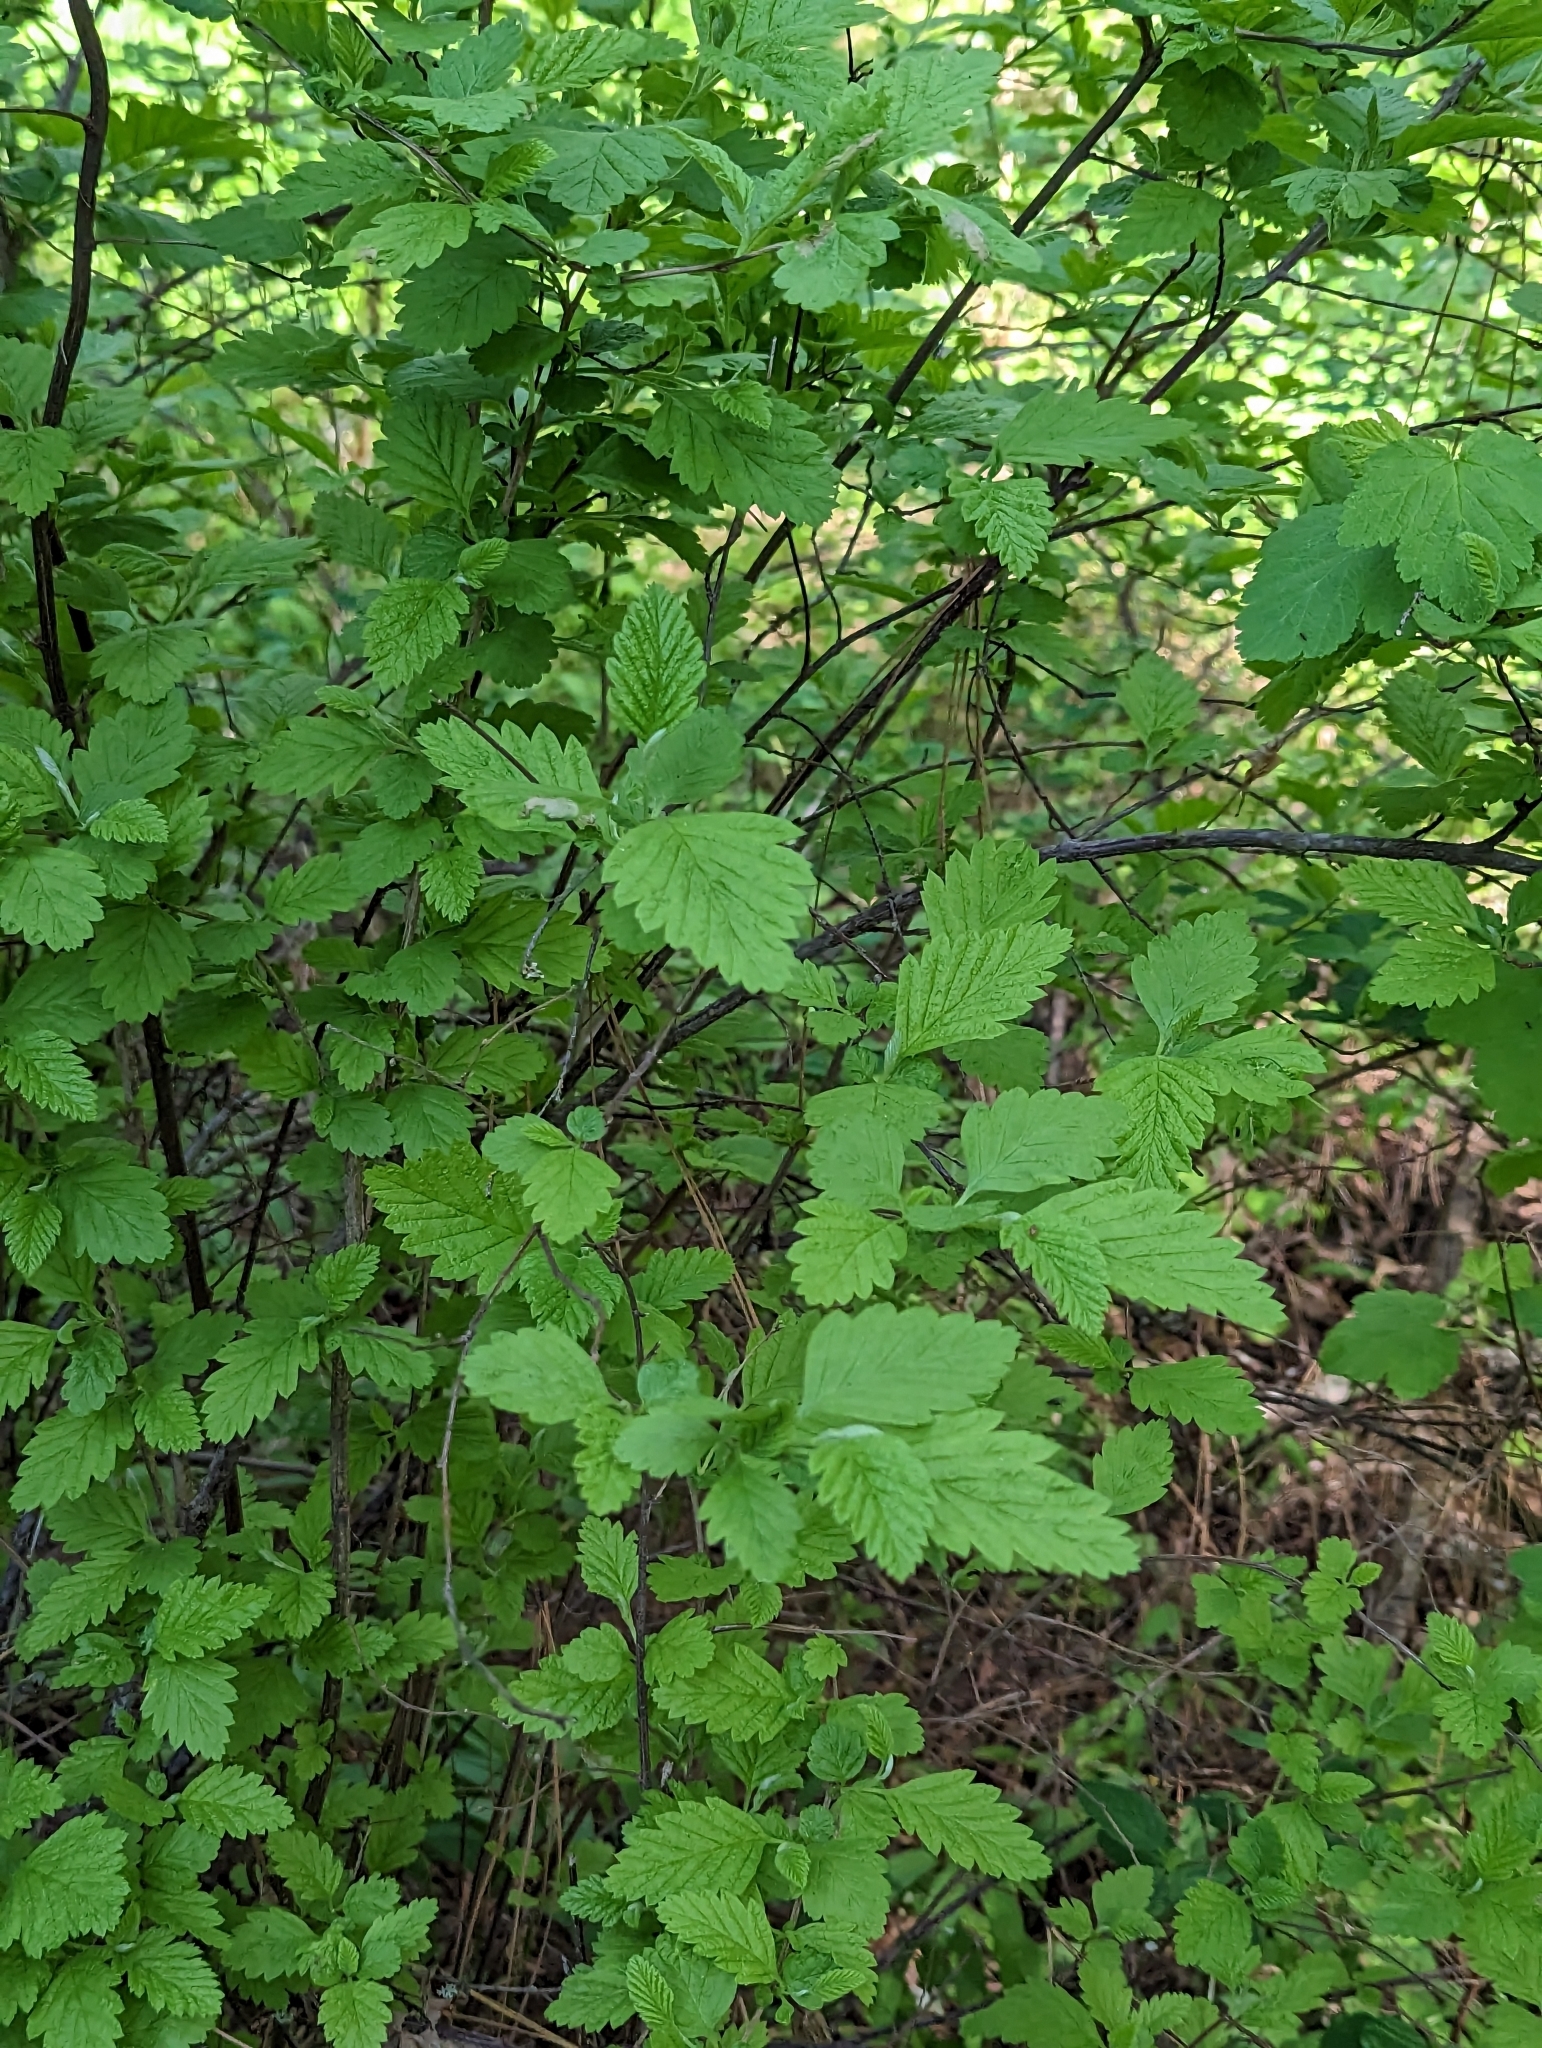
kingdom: Plantae
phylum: Tracheophyta
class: Magnoliopsida
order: Rosales
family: Rosaceae
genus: Holodiscus
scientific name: Holodiscus discolor
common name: Oceanspray
